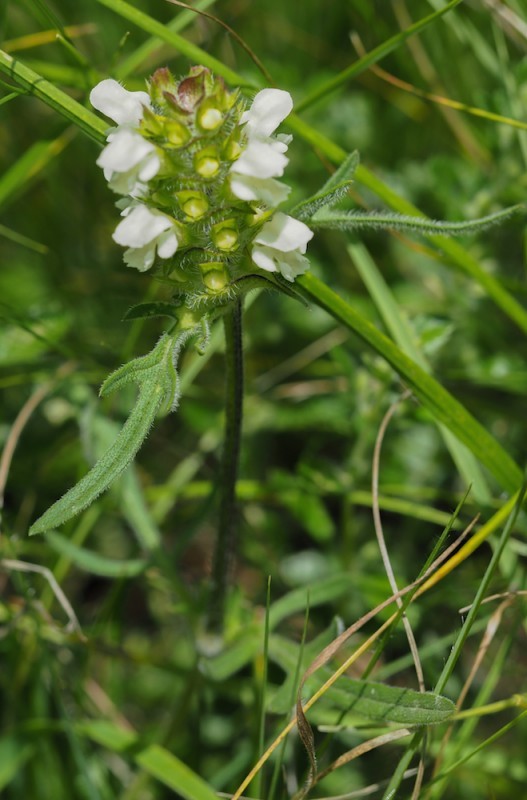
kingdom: Plantae
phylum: Tracheophyta
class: Magnoliopsida
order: Lamiales
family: Lamiaceae
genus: Prunella
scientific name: Prunella laciniata
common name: Cut-leaved selfheal
